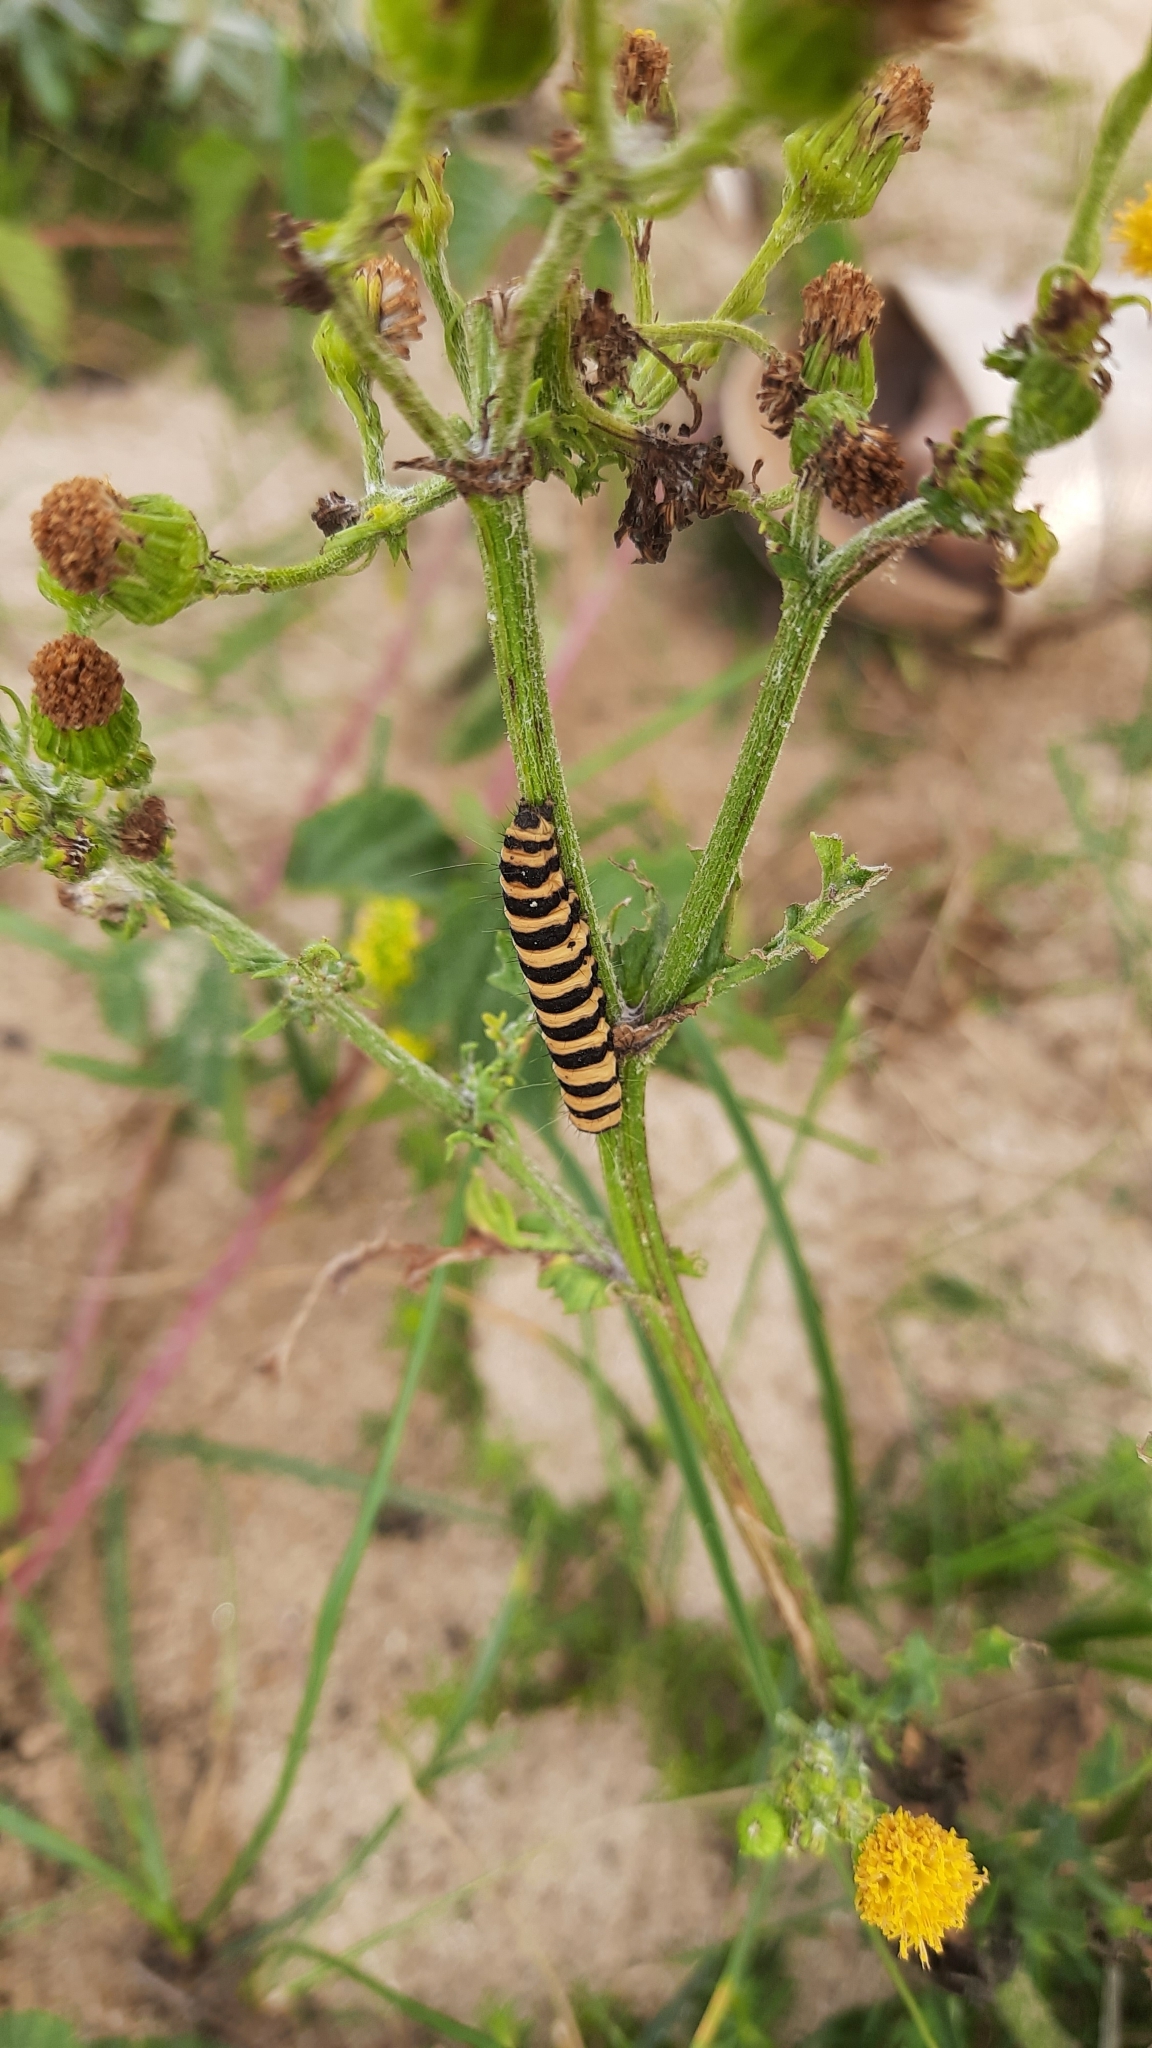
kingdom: Animalia
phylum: Arthropoda
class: Insecta
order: Lepidoptera
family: Erebidae
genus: Tyria
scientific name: Tyria jacobaeae
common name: Cinnabar
